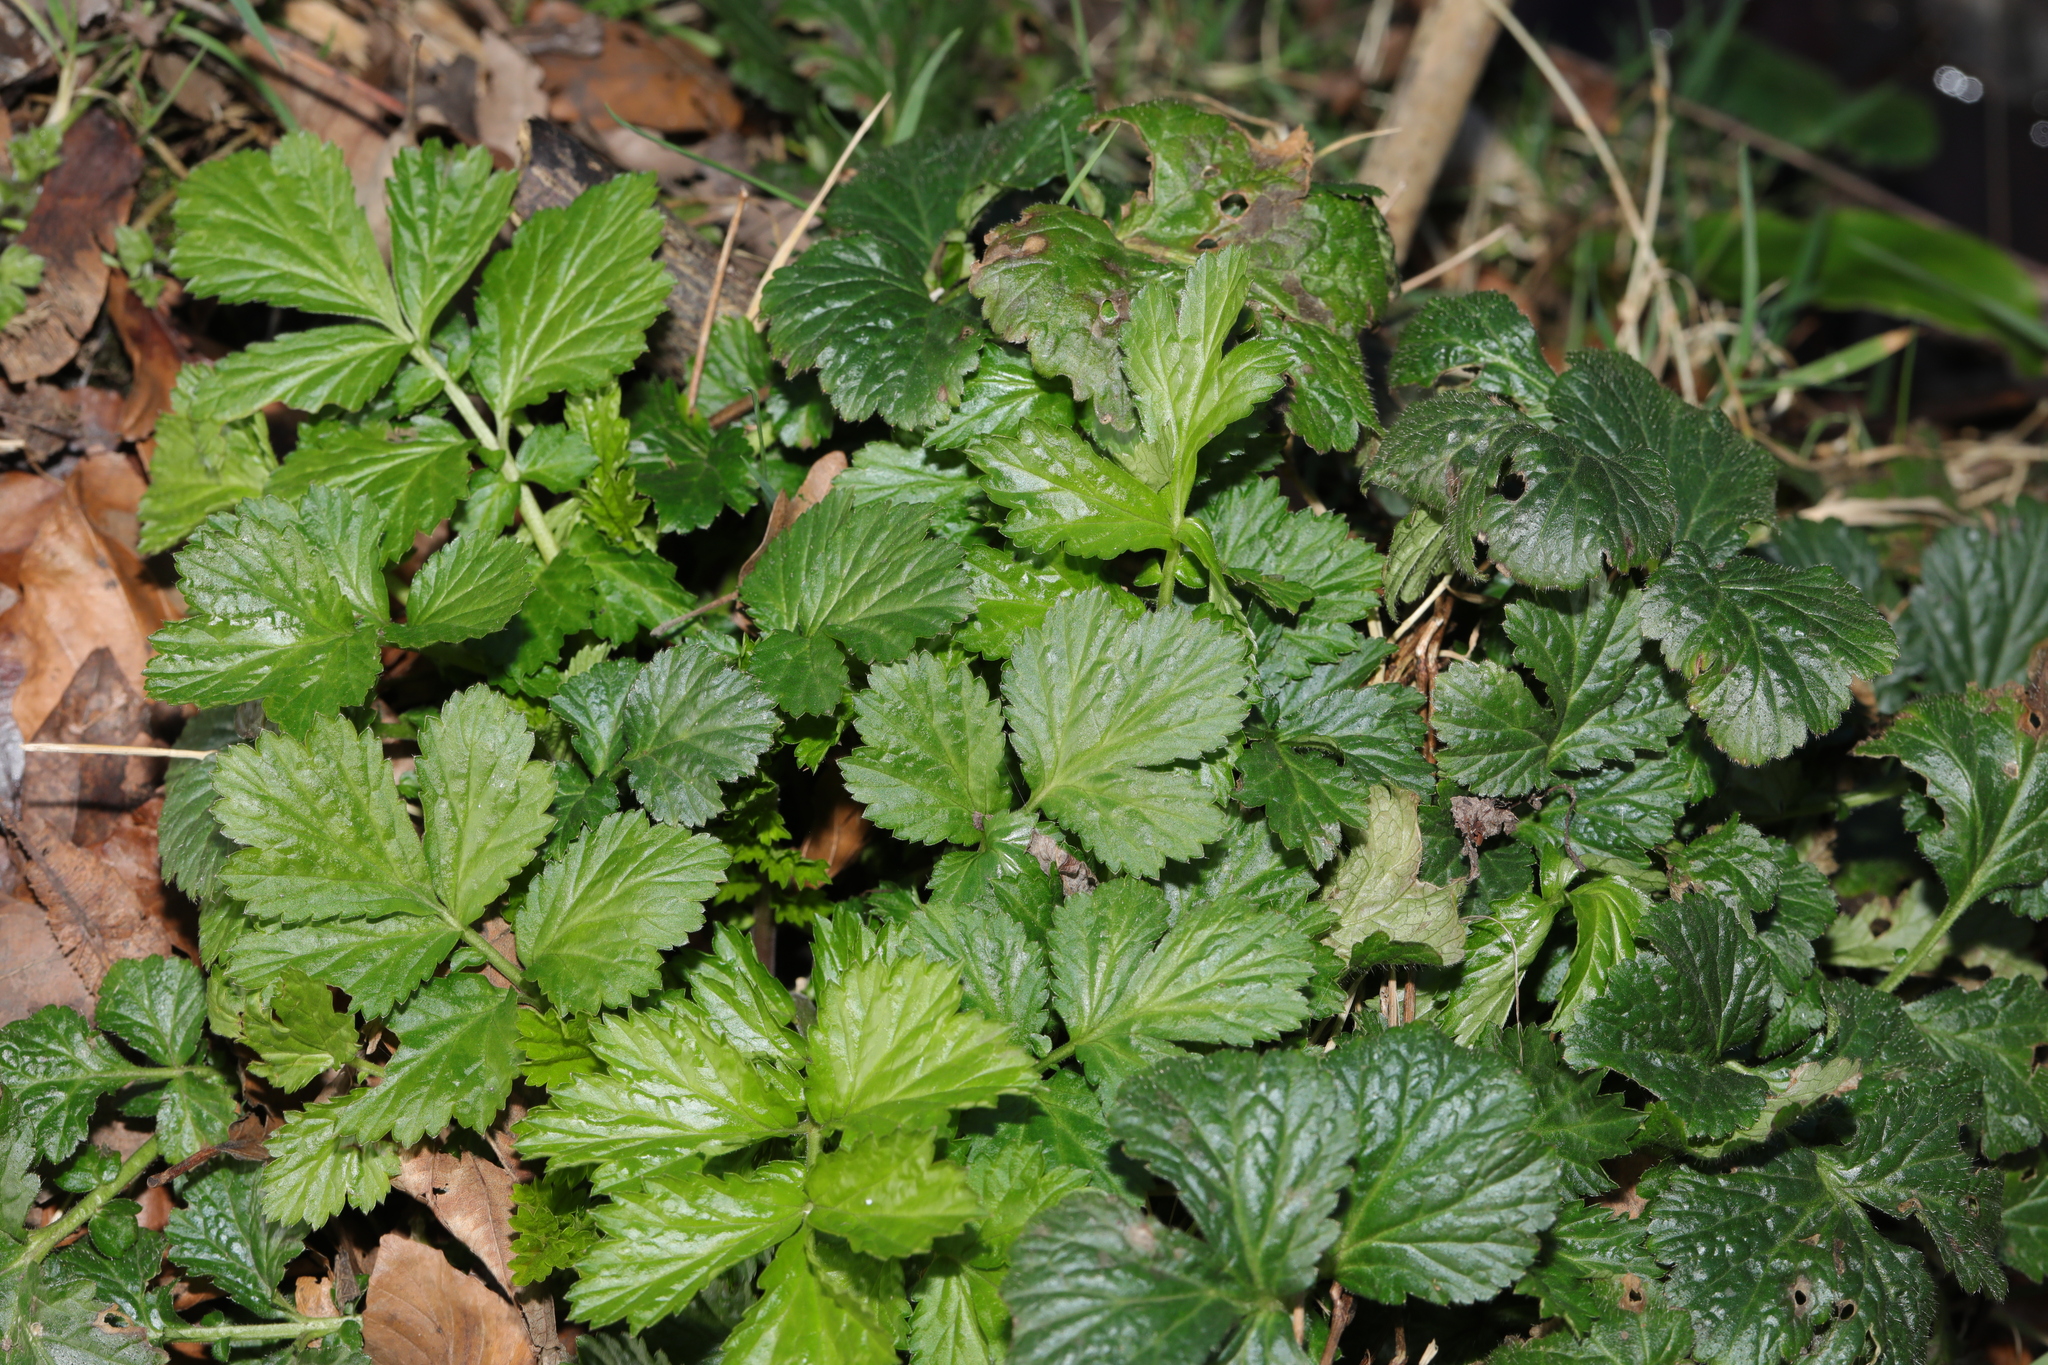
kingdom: Plantae
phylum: Tracheophyta
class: Magnoliopsida
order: Rosales
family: Rosaceae
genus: Geum
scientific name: Geum urbanum
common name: Wood avens
